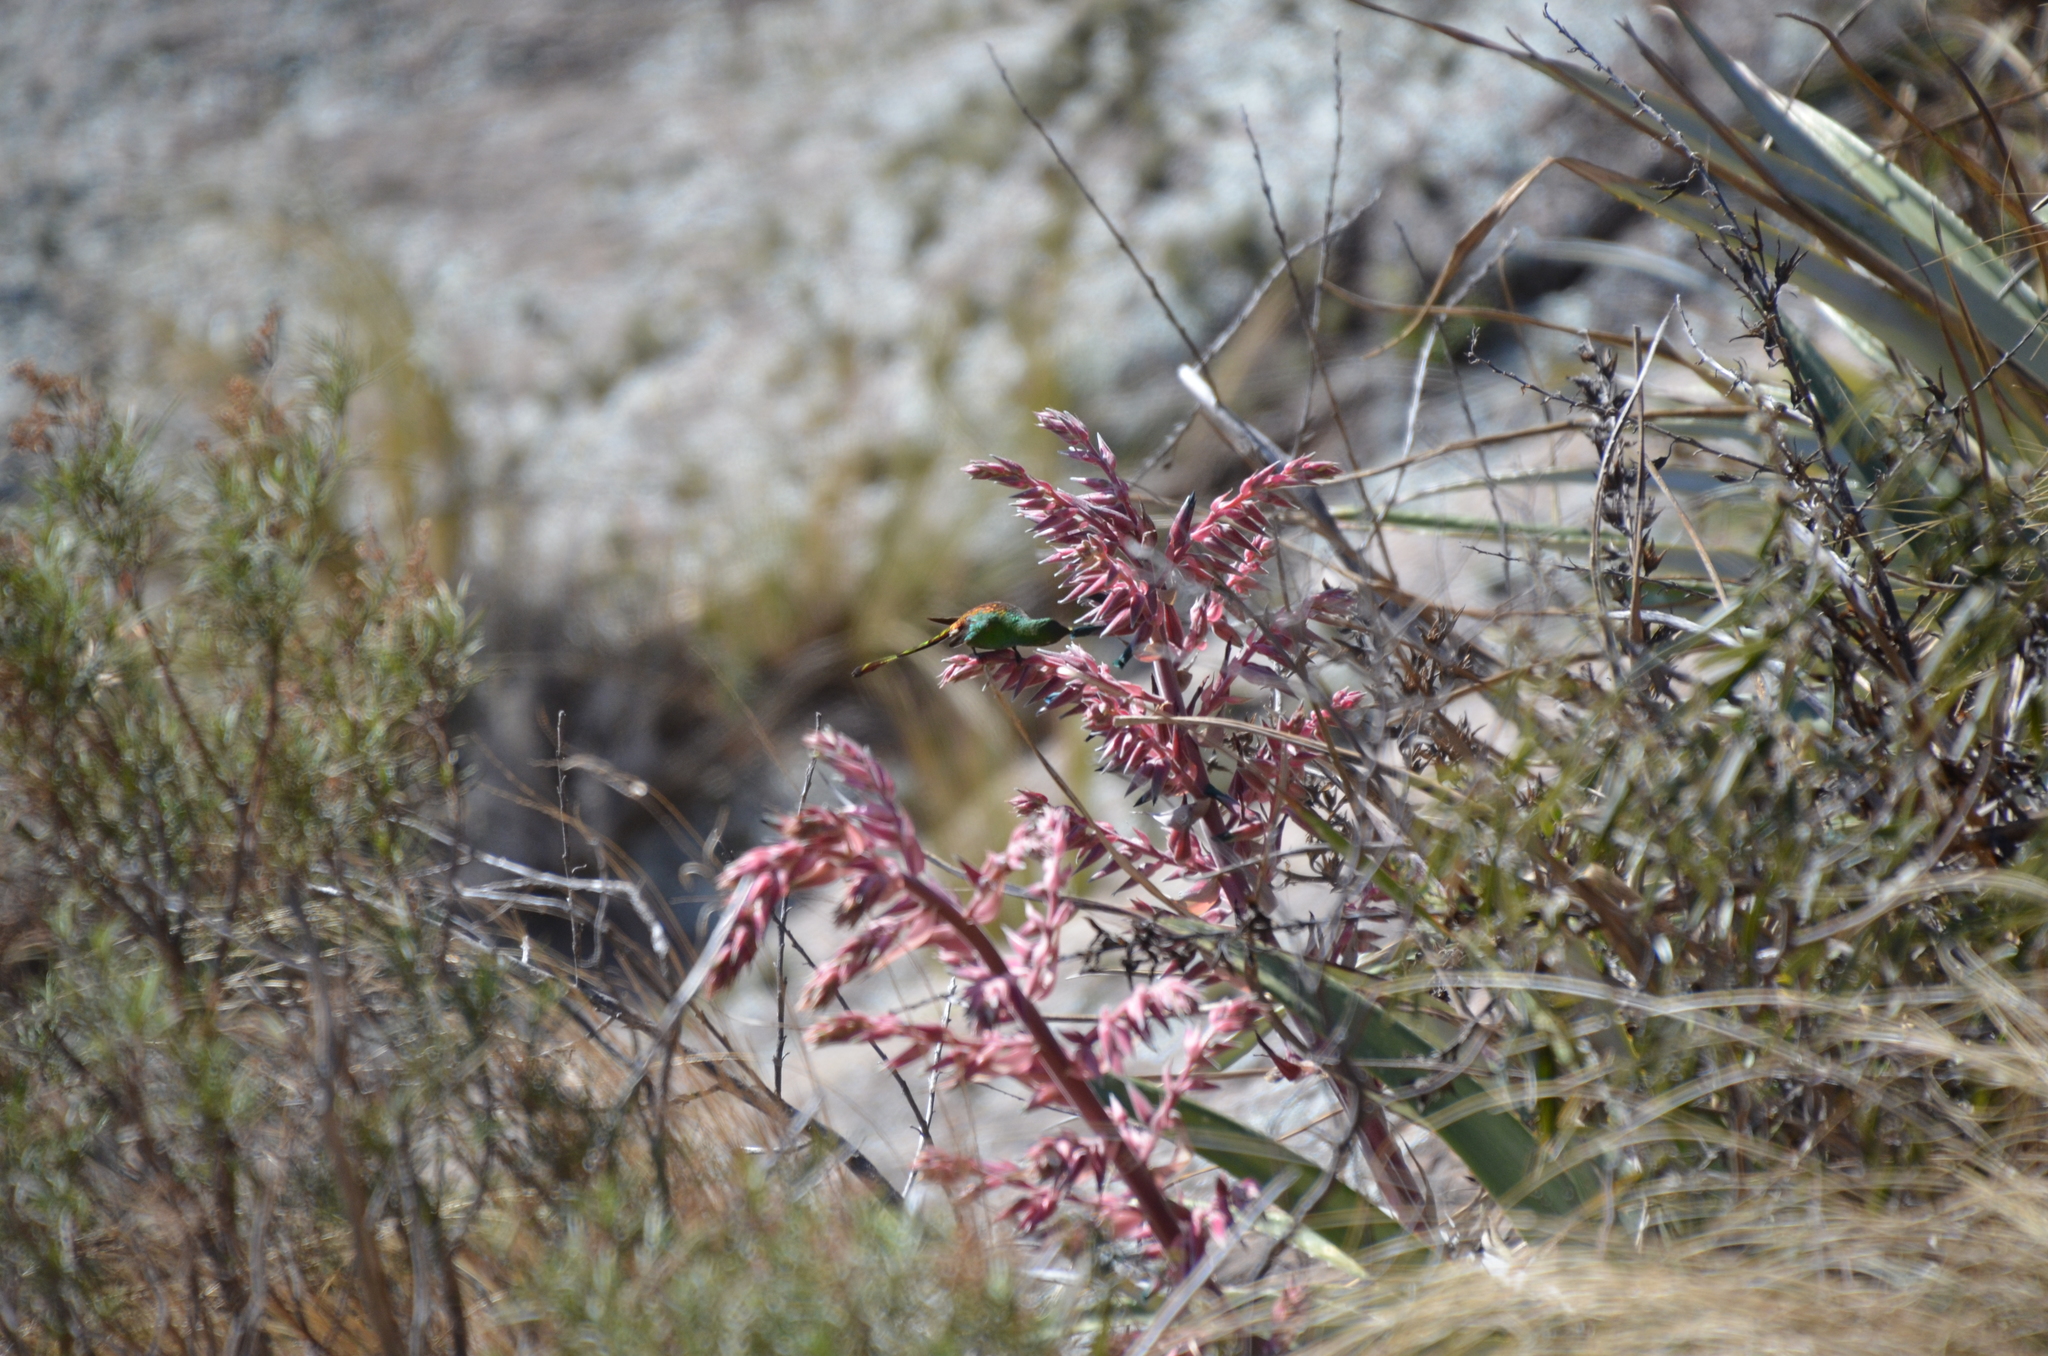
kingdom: Animalia
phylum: Chordata
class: Aves
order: Apodiformes
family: Trochilidae
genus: Sappho
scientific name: Sappho sparganurus
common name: Red-tailed comet
